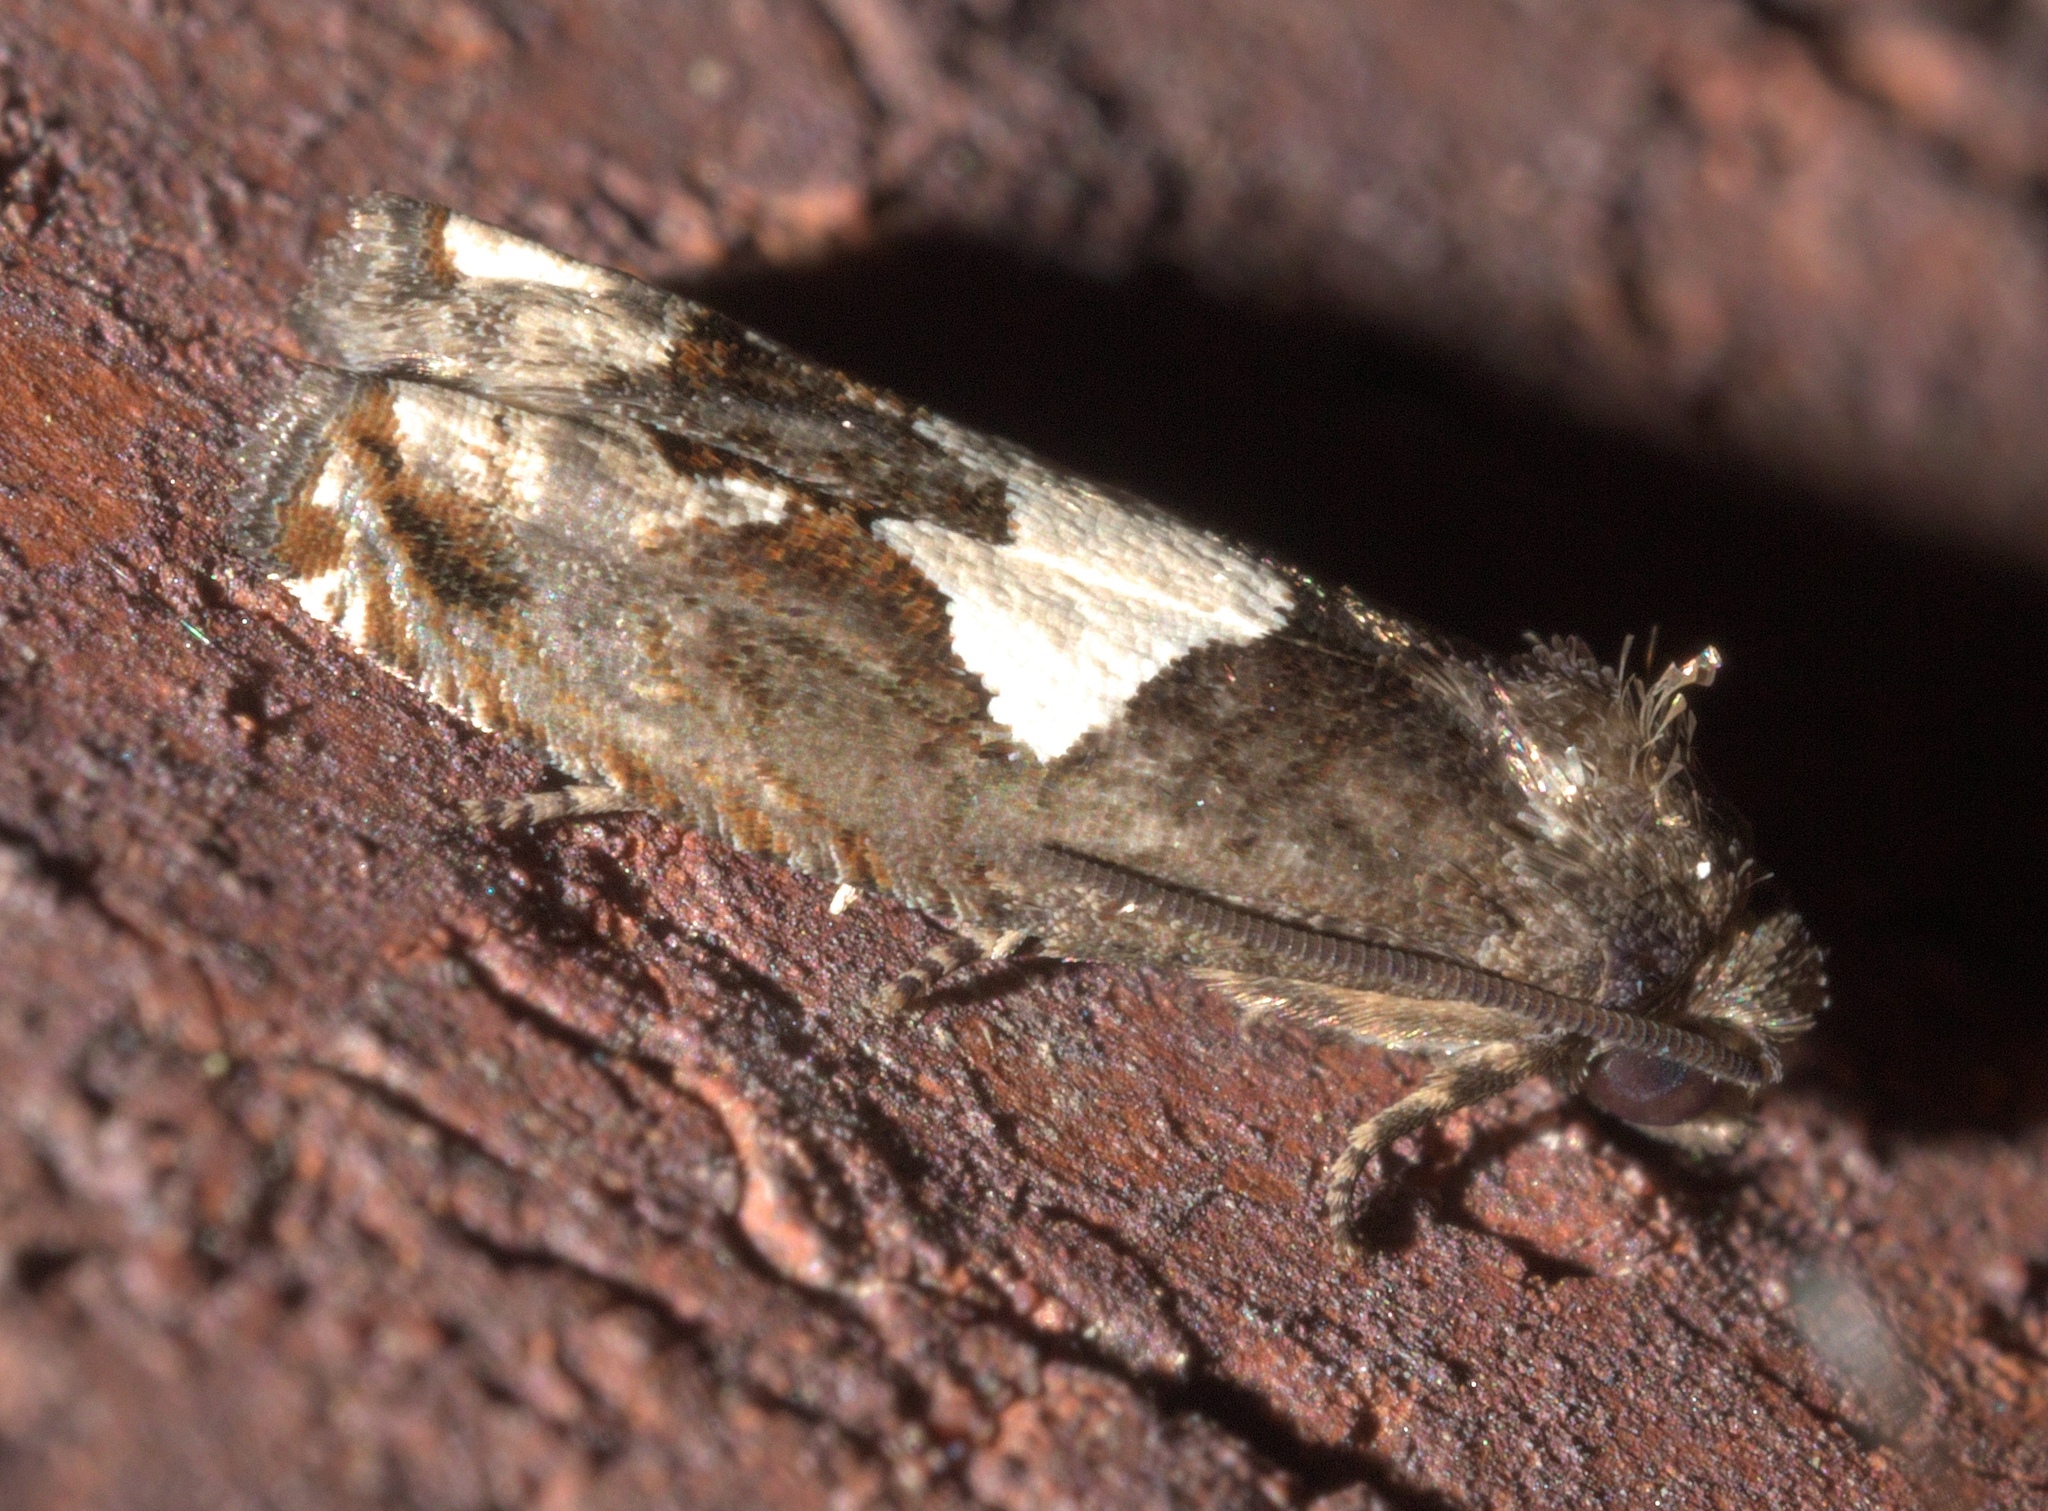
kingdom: Animalia
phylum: Arthropoda
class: Insecta
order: Lepidoptera
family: Tortricidae
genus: Epiblema
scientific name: Epiblema otiosana
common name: Bidens borer moth
